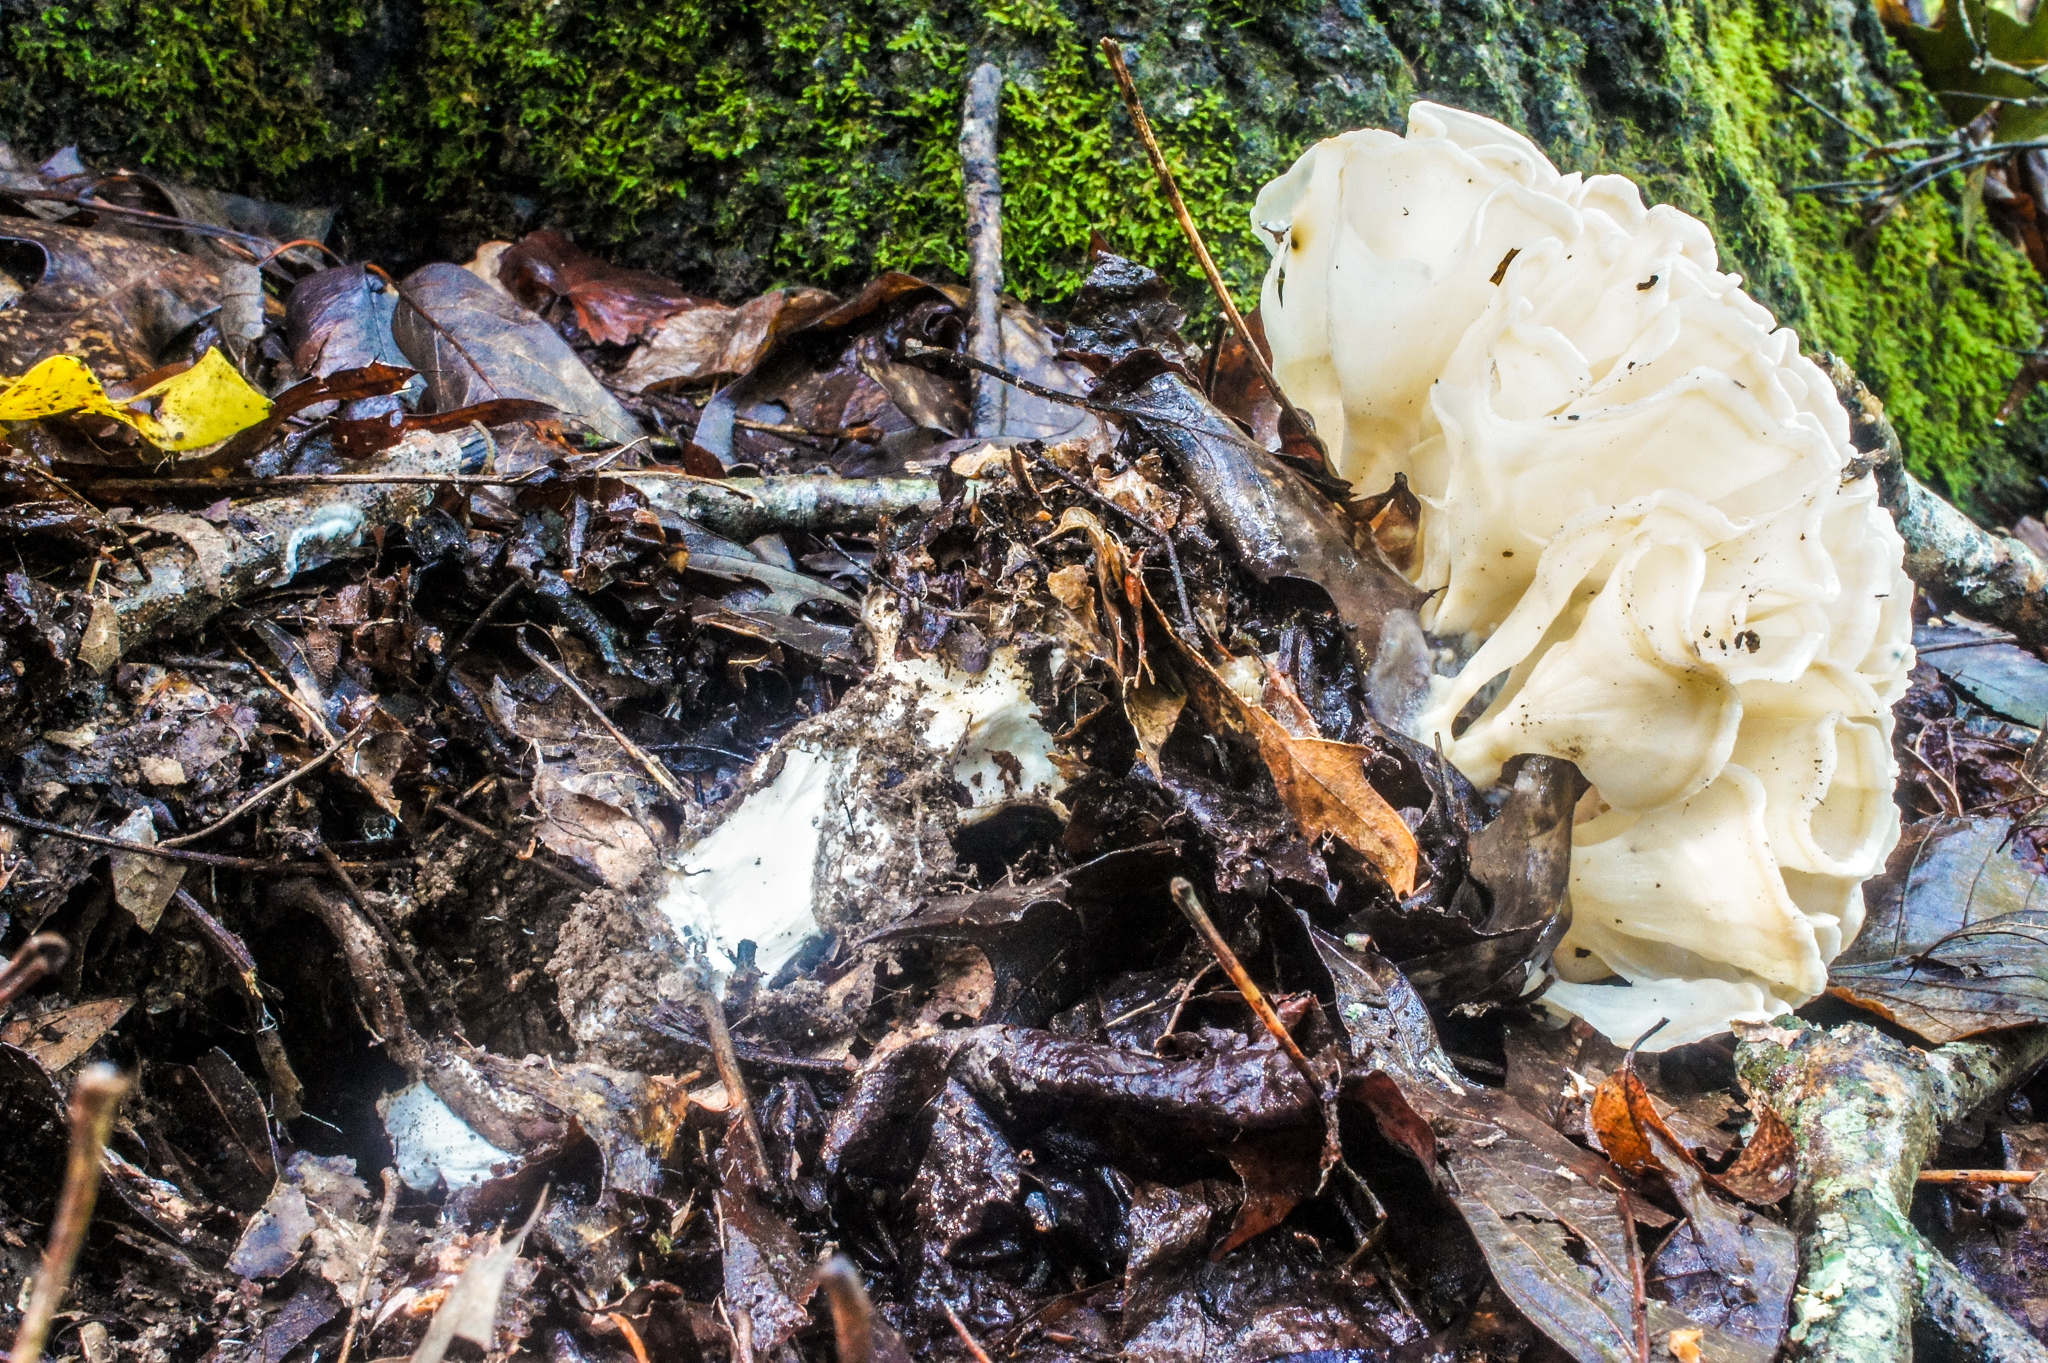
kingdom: Fungi
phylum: Basidiomycota
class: Agaricomycetes
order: Polyporales
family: Sparassidaceae
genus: Sparassis
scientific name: Sparassis spathulata
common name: Eastern cauliflower mushroom
